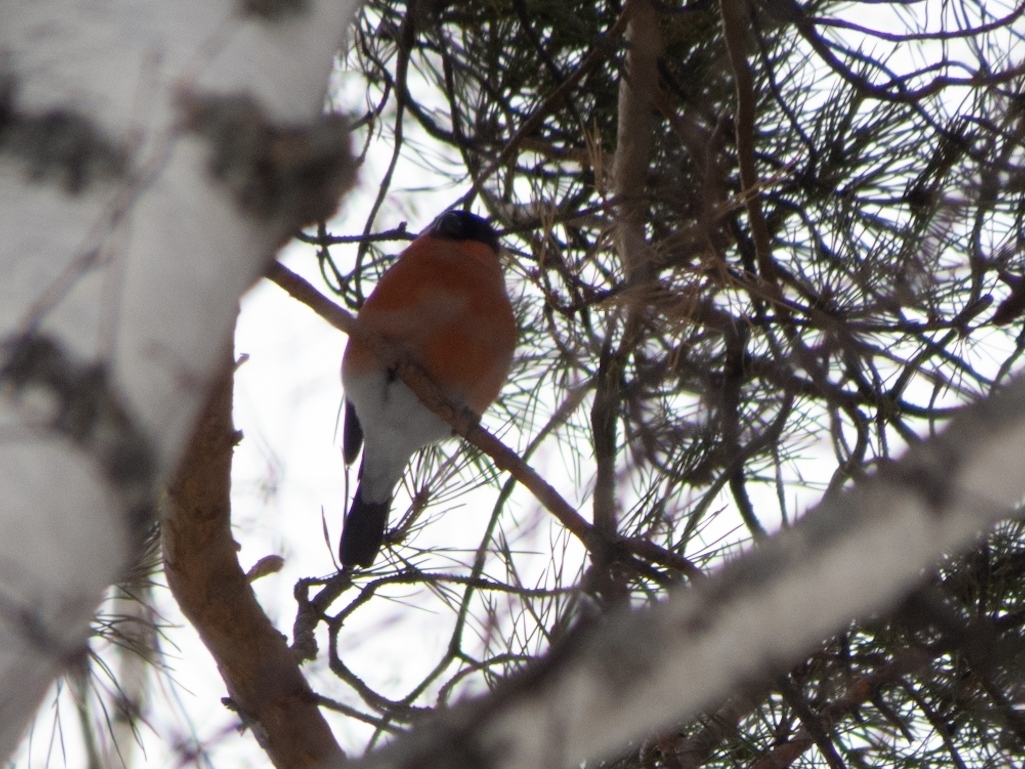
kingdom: Animalia
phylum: Chordata
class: Aves
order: Passeriformes
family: Fringillidae
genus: Pyrrhula
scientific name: Pyrrhula pyrrhula
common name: Eurasian bullfinch
